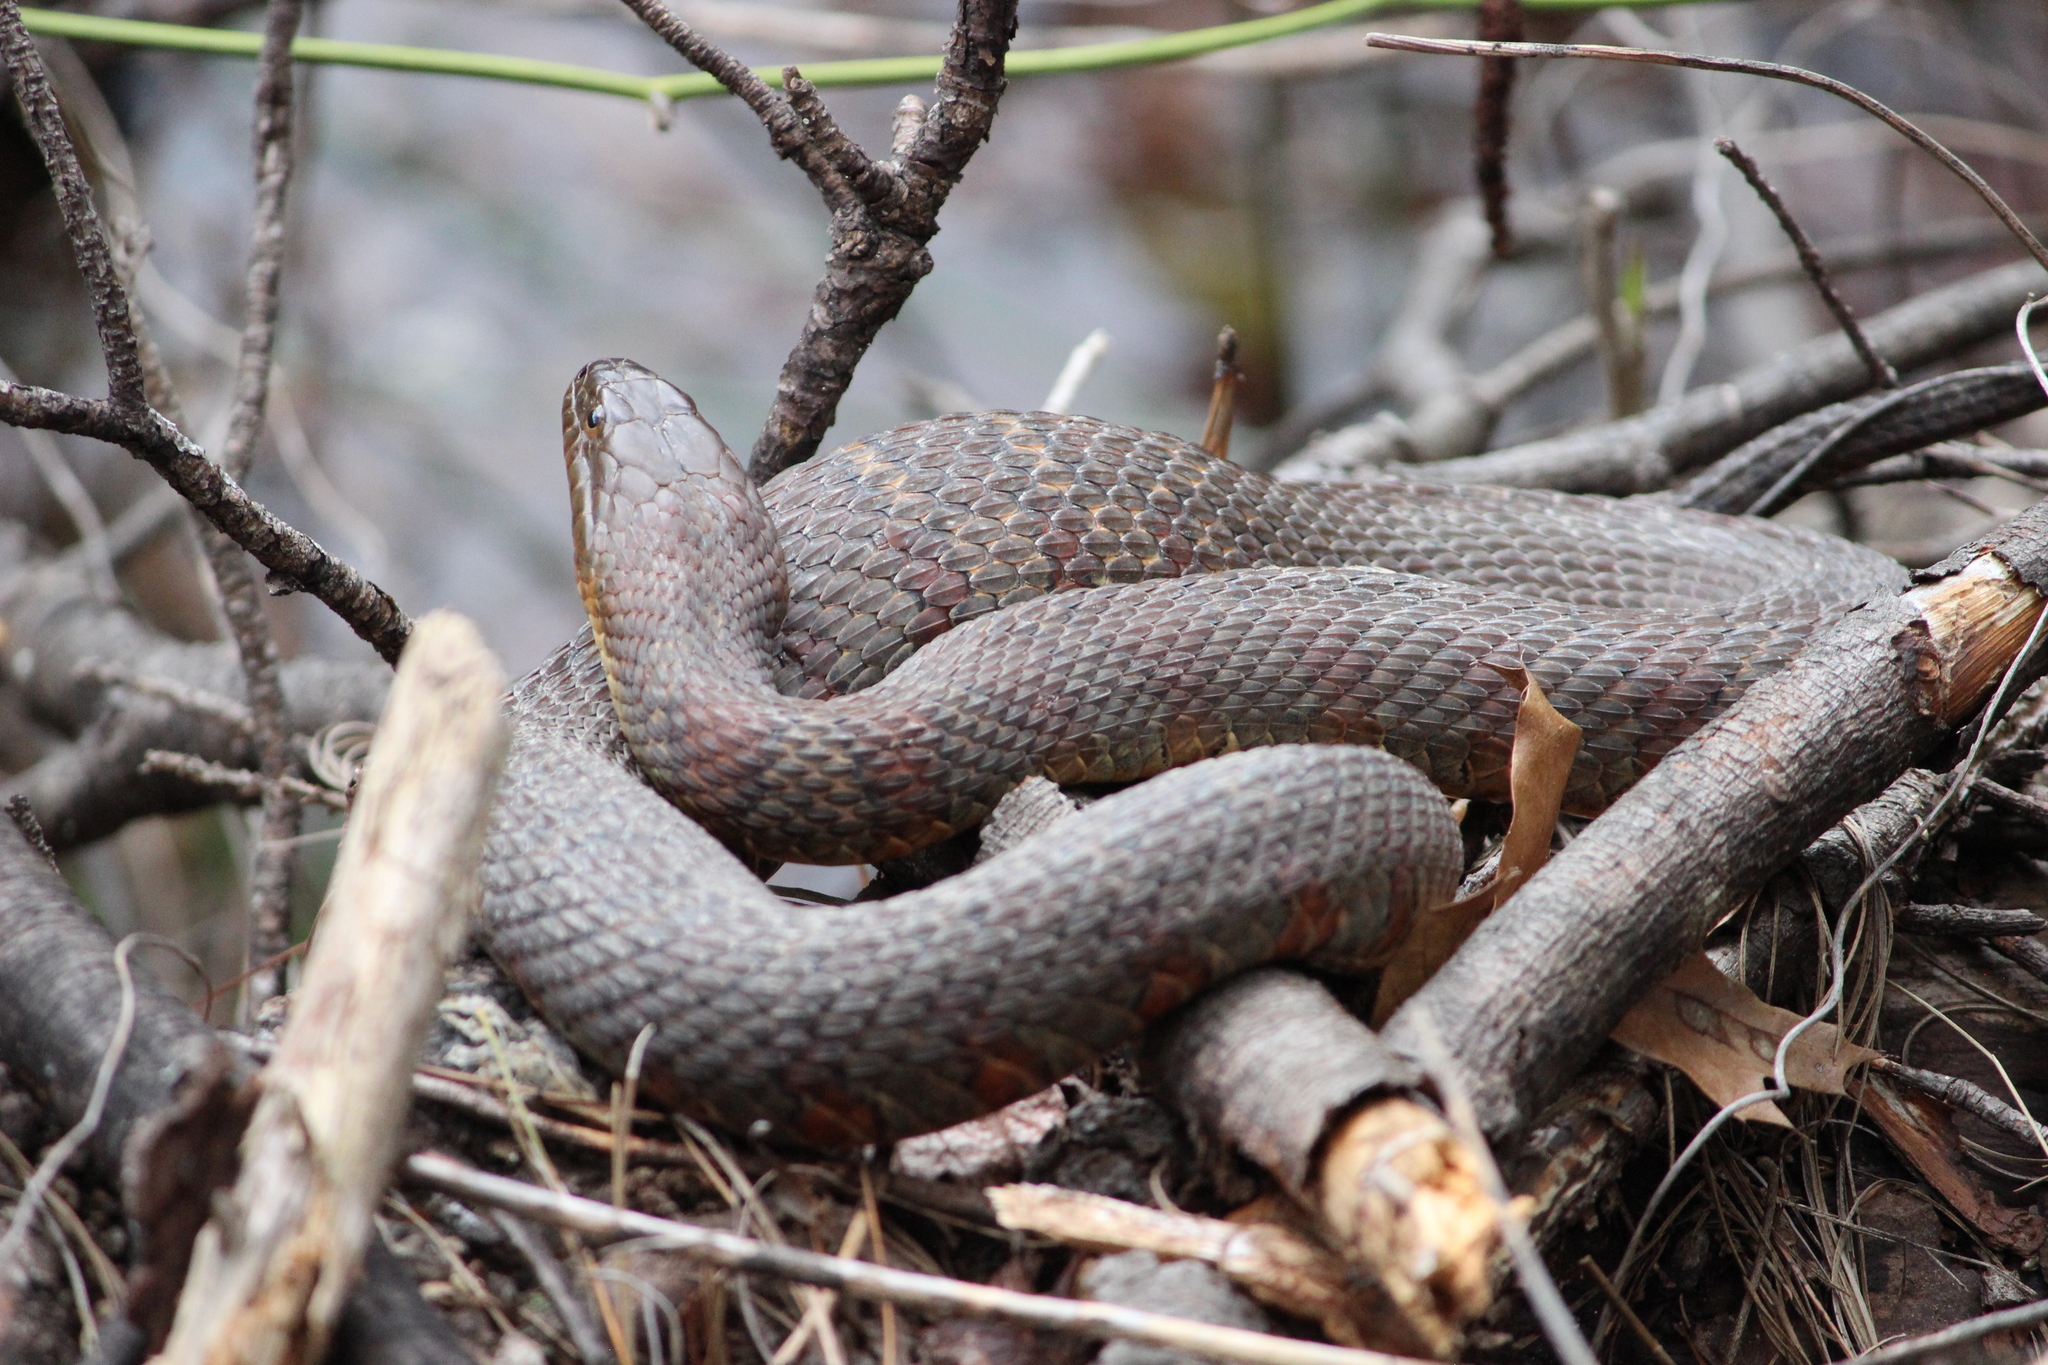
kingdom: Animalia
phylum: Chordata
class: Squamata
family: Colubridae
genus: Nerodia
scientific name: Nerodia sipedon
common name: Northern water snake
